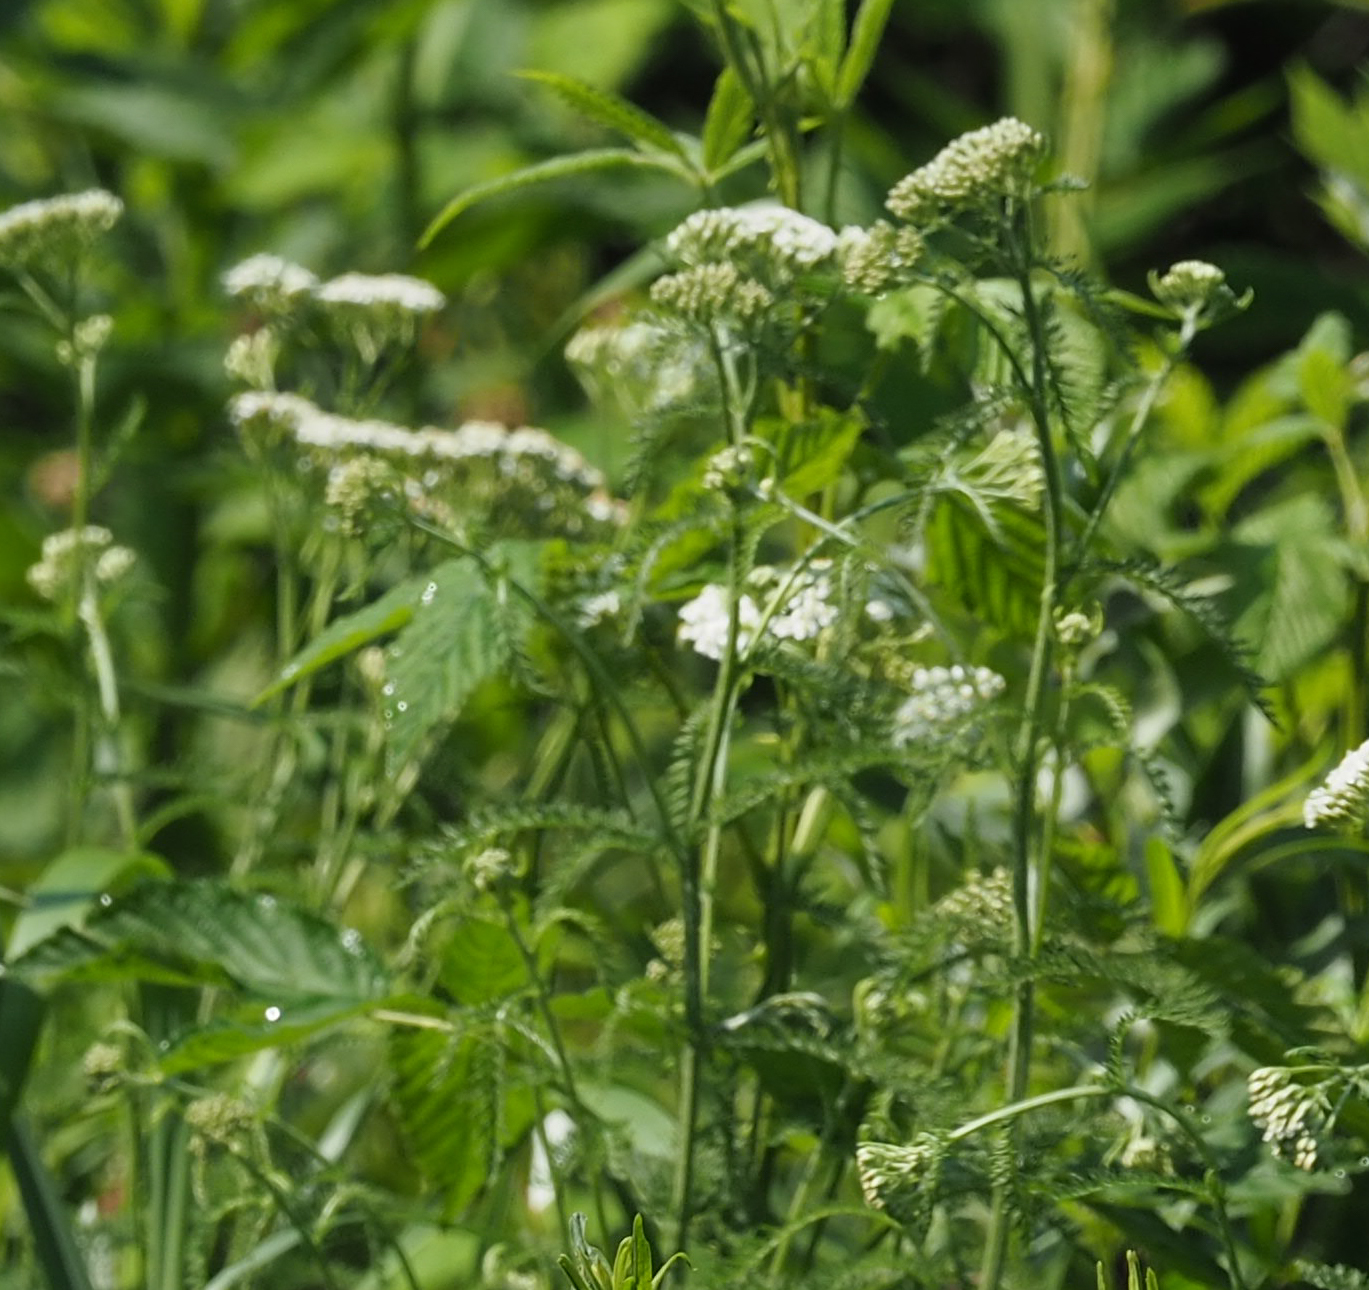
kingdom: Plantae
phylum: Tracheophyta
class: Magnoliopsida
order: Asterales
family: Asteraceae
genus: Achillea
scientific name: Achillea millefolium
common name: Yarrow
